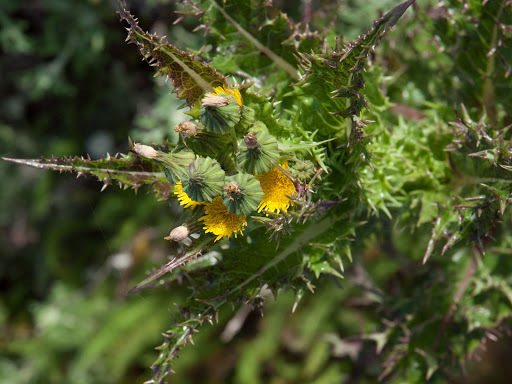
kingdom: Plantae
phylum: Tracheophyta
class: Magnoliopsida
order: Asterales
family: Asteraceae
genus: Sonchus
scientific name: Sonchus asper
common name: Prickly sow-thistle
